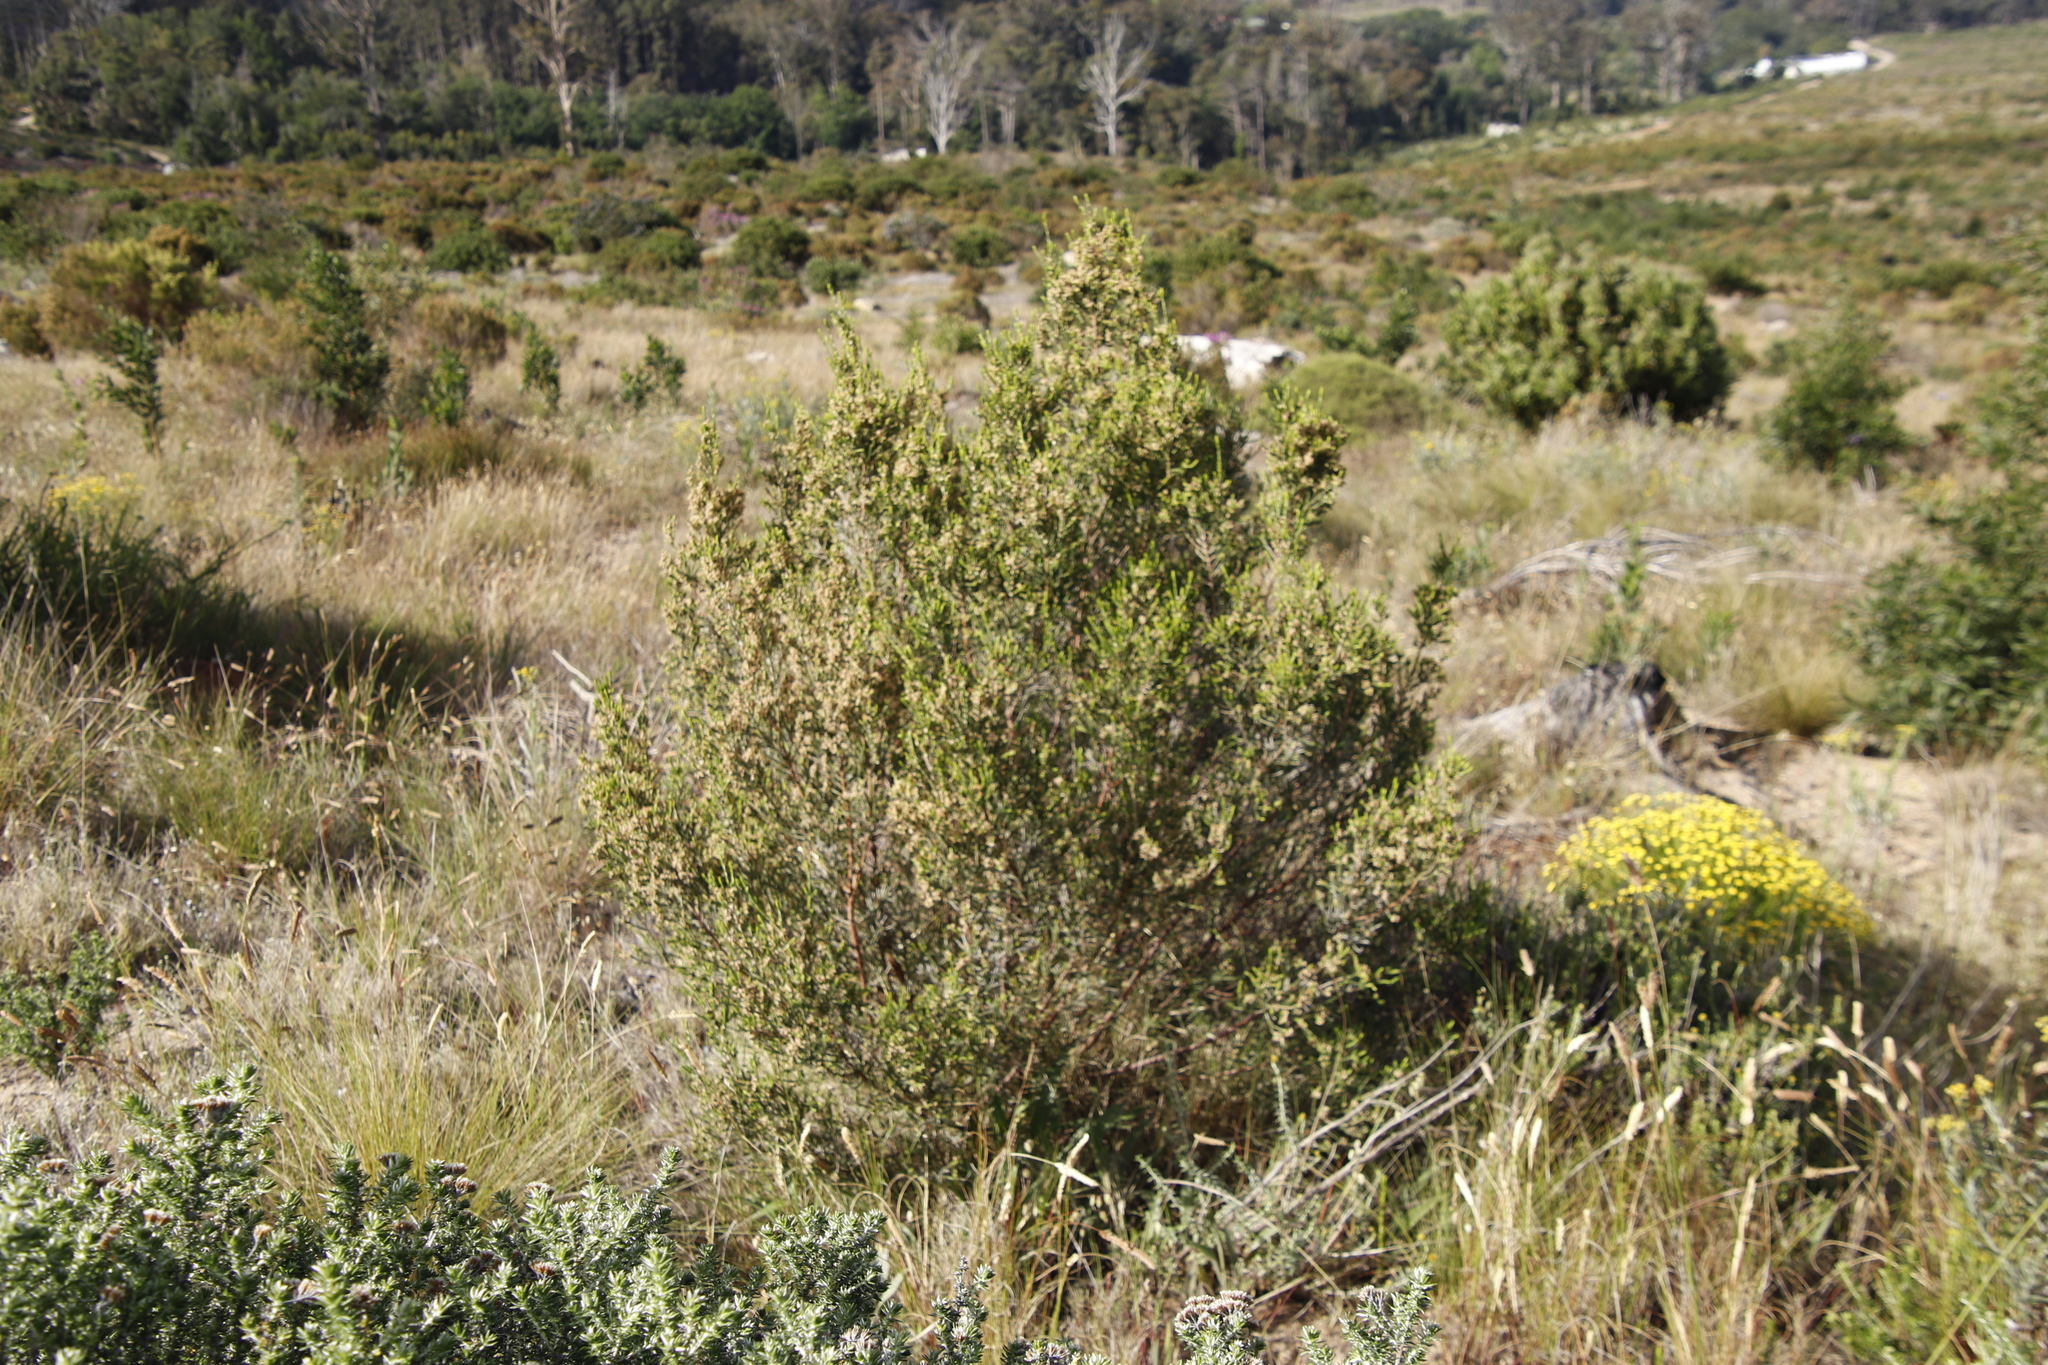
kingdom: Plantae
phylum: Tracheophyta
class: Magnoliopsida
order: Malvales
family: Thymelaeaceae
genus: Passerina
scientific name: Passerina corymbosa
